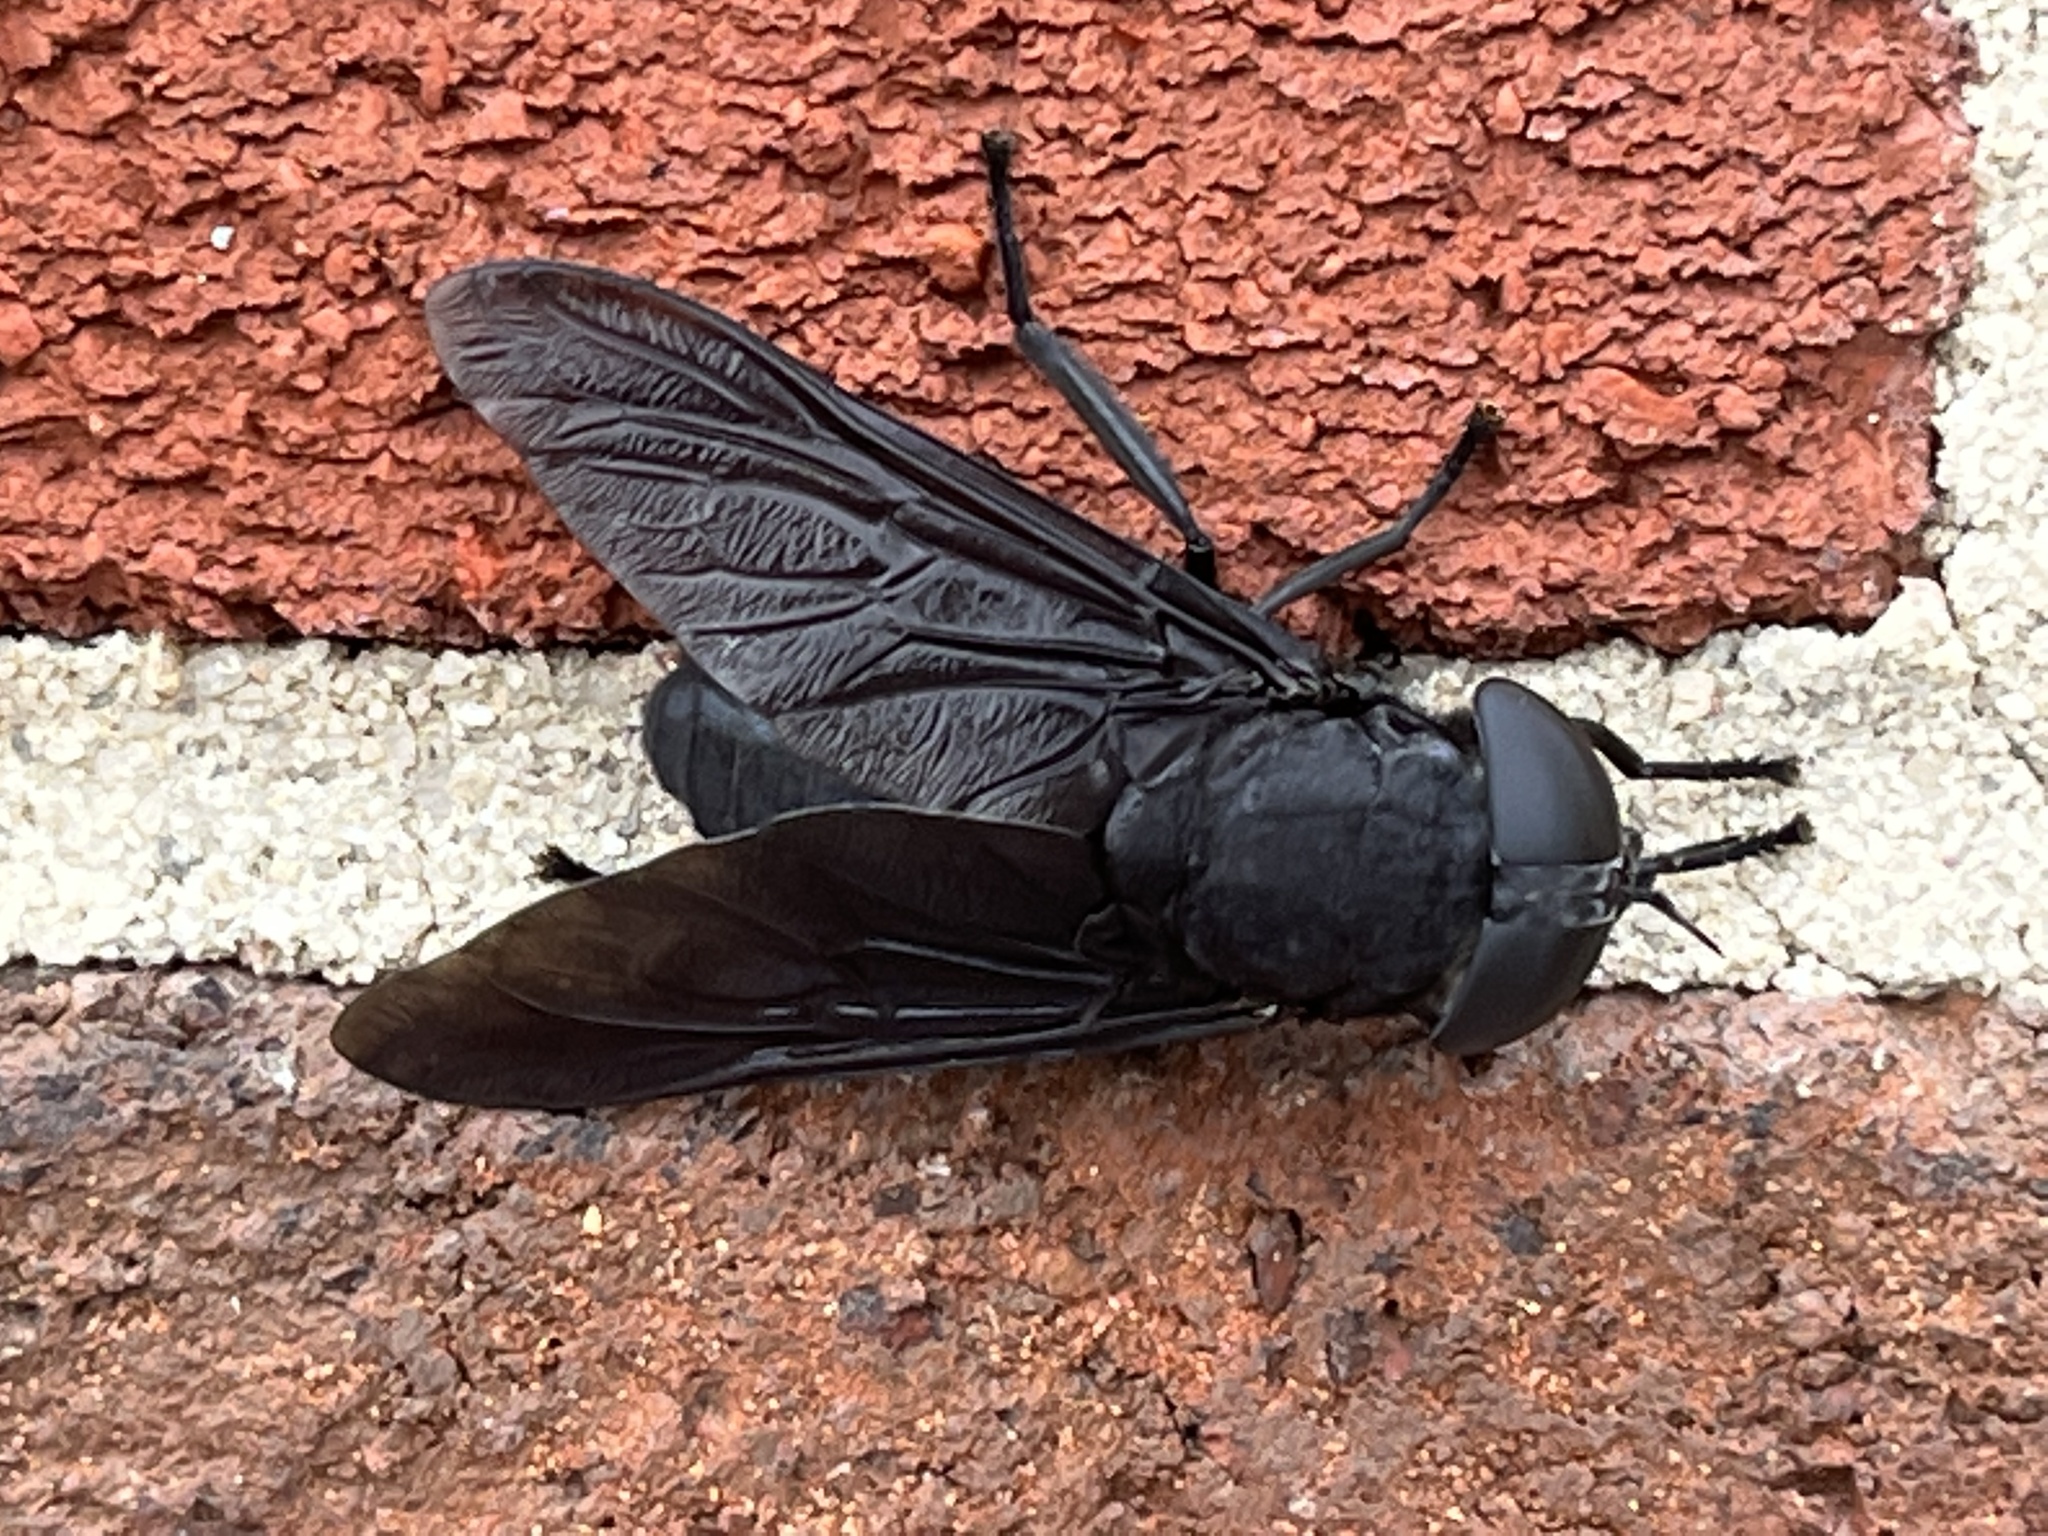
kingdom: Animalia
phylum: Arthropoda
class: Insecta
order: Diptera
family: Tabanidae
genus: Tabanus
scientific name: Tabanus atratus
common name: Black horse fly
